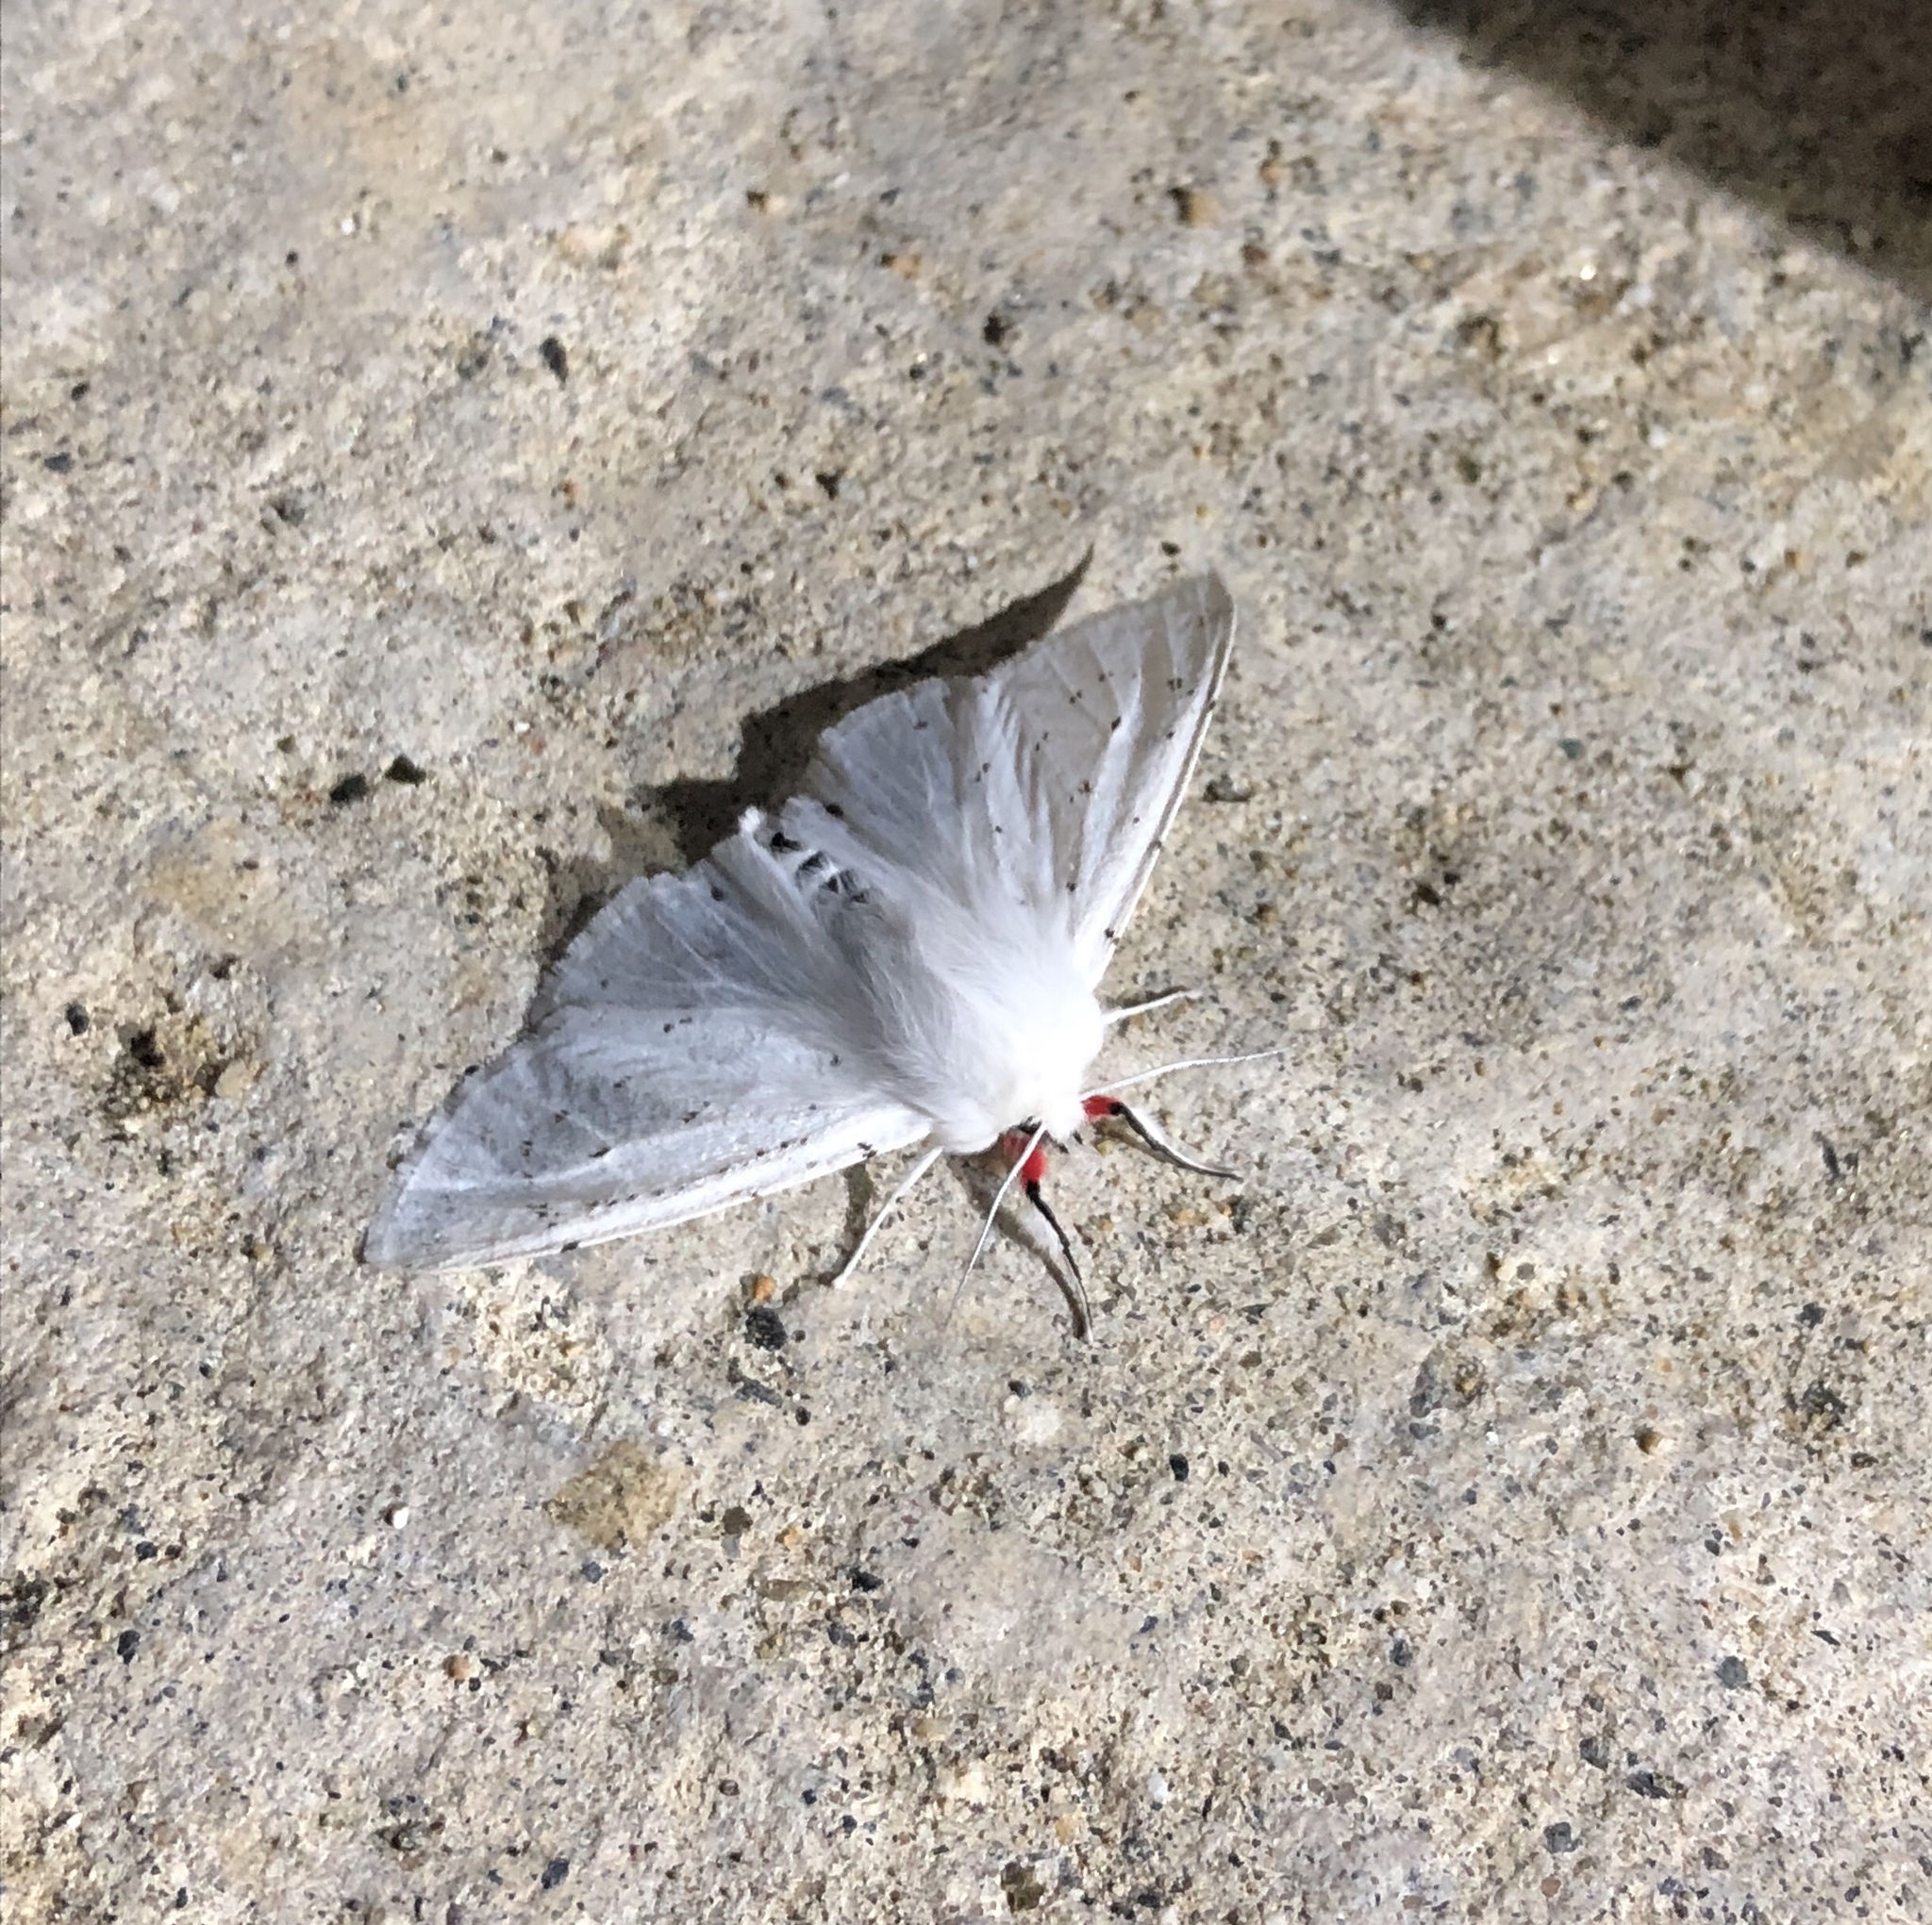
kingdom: Animalia
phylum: Arthropoda
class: Insecta
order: Lepidoptera
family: Erebidae
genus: Spilosoma
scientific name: Spilosoma vestalis
